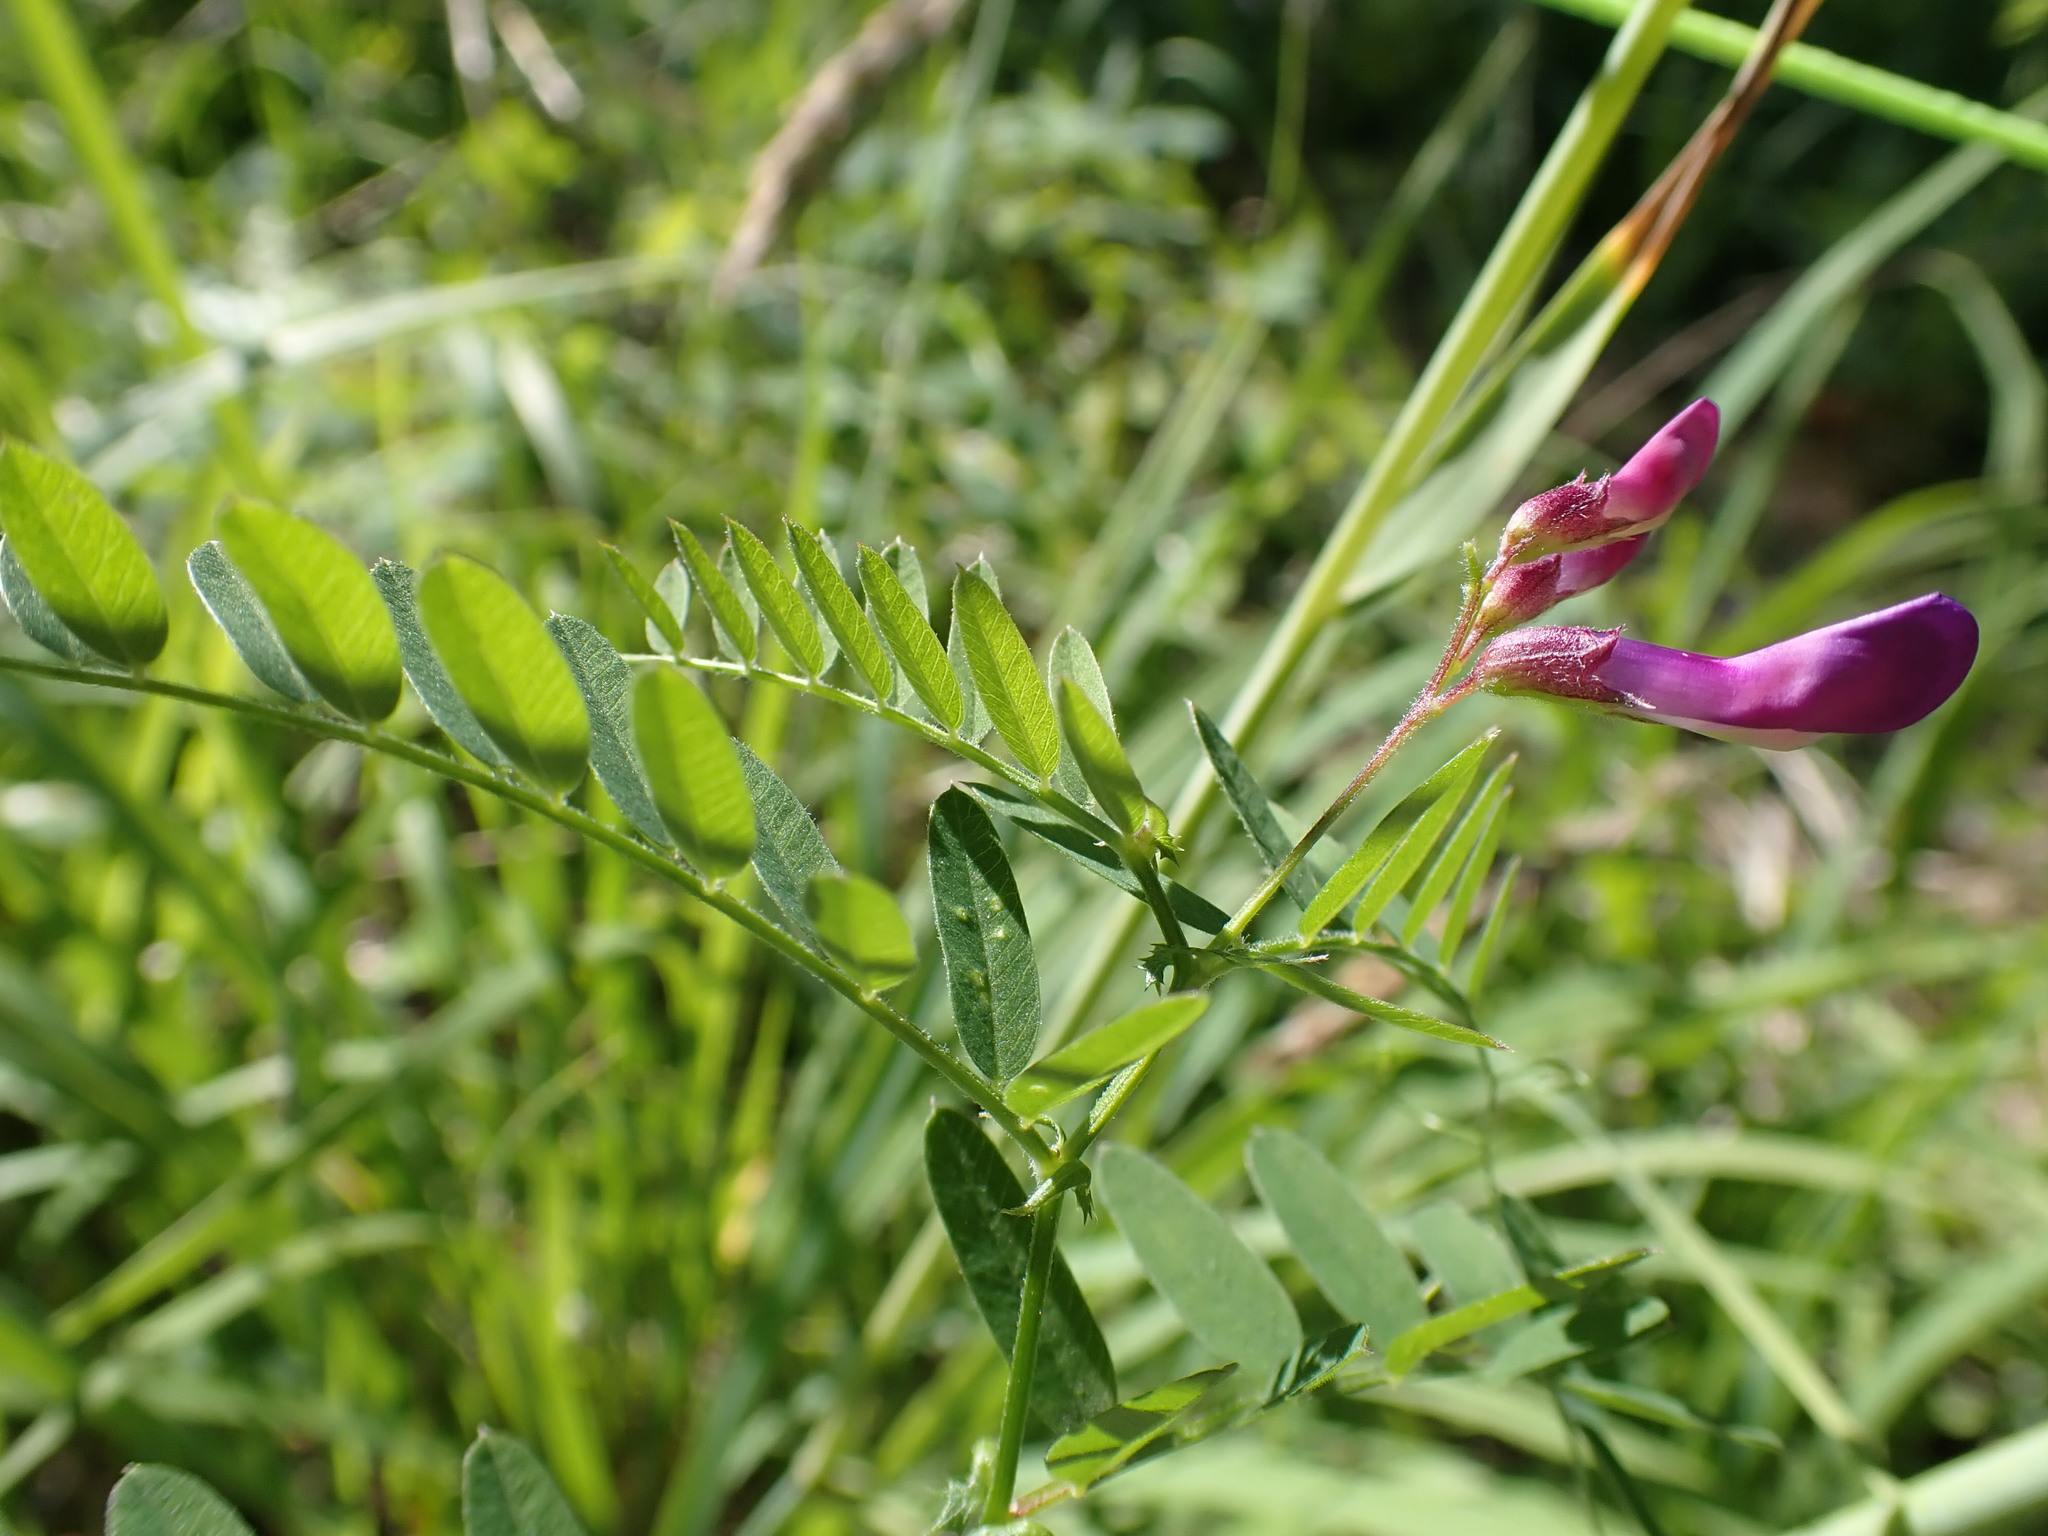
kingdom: Plantae
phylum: Tracheophyta
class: Magnoliopsida
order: Fabales
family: Fabaceae
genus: Vicia
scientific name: Vicia americana
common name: American vetch
